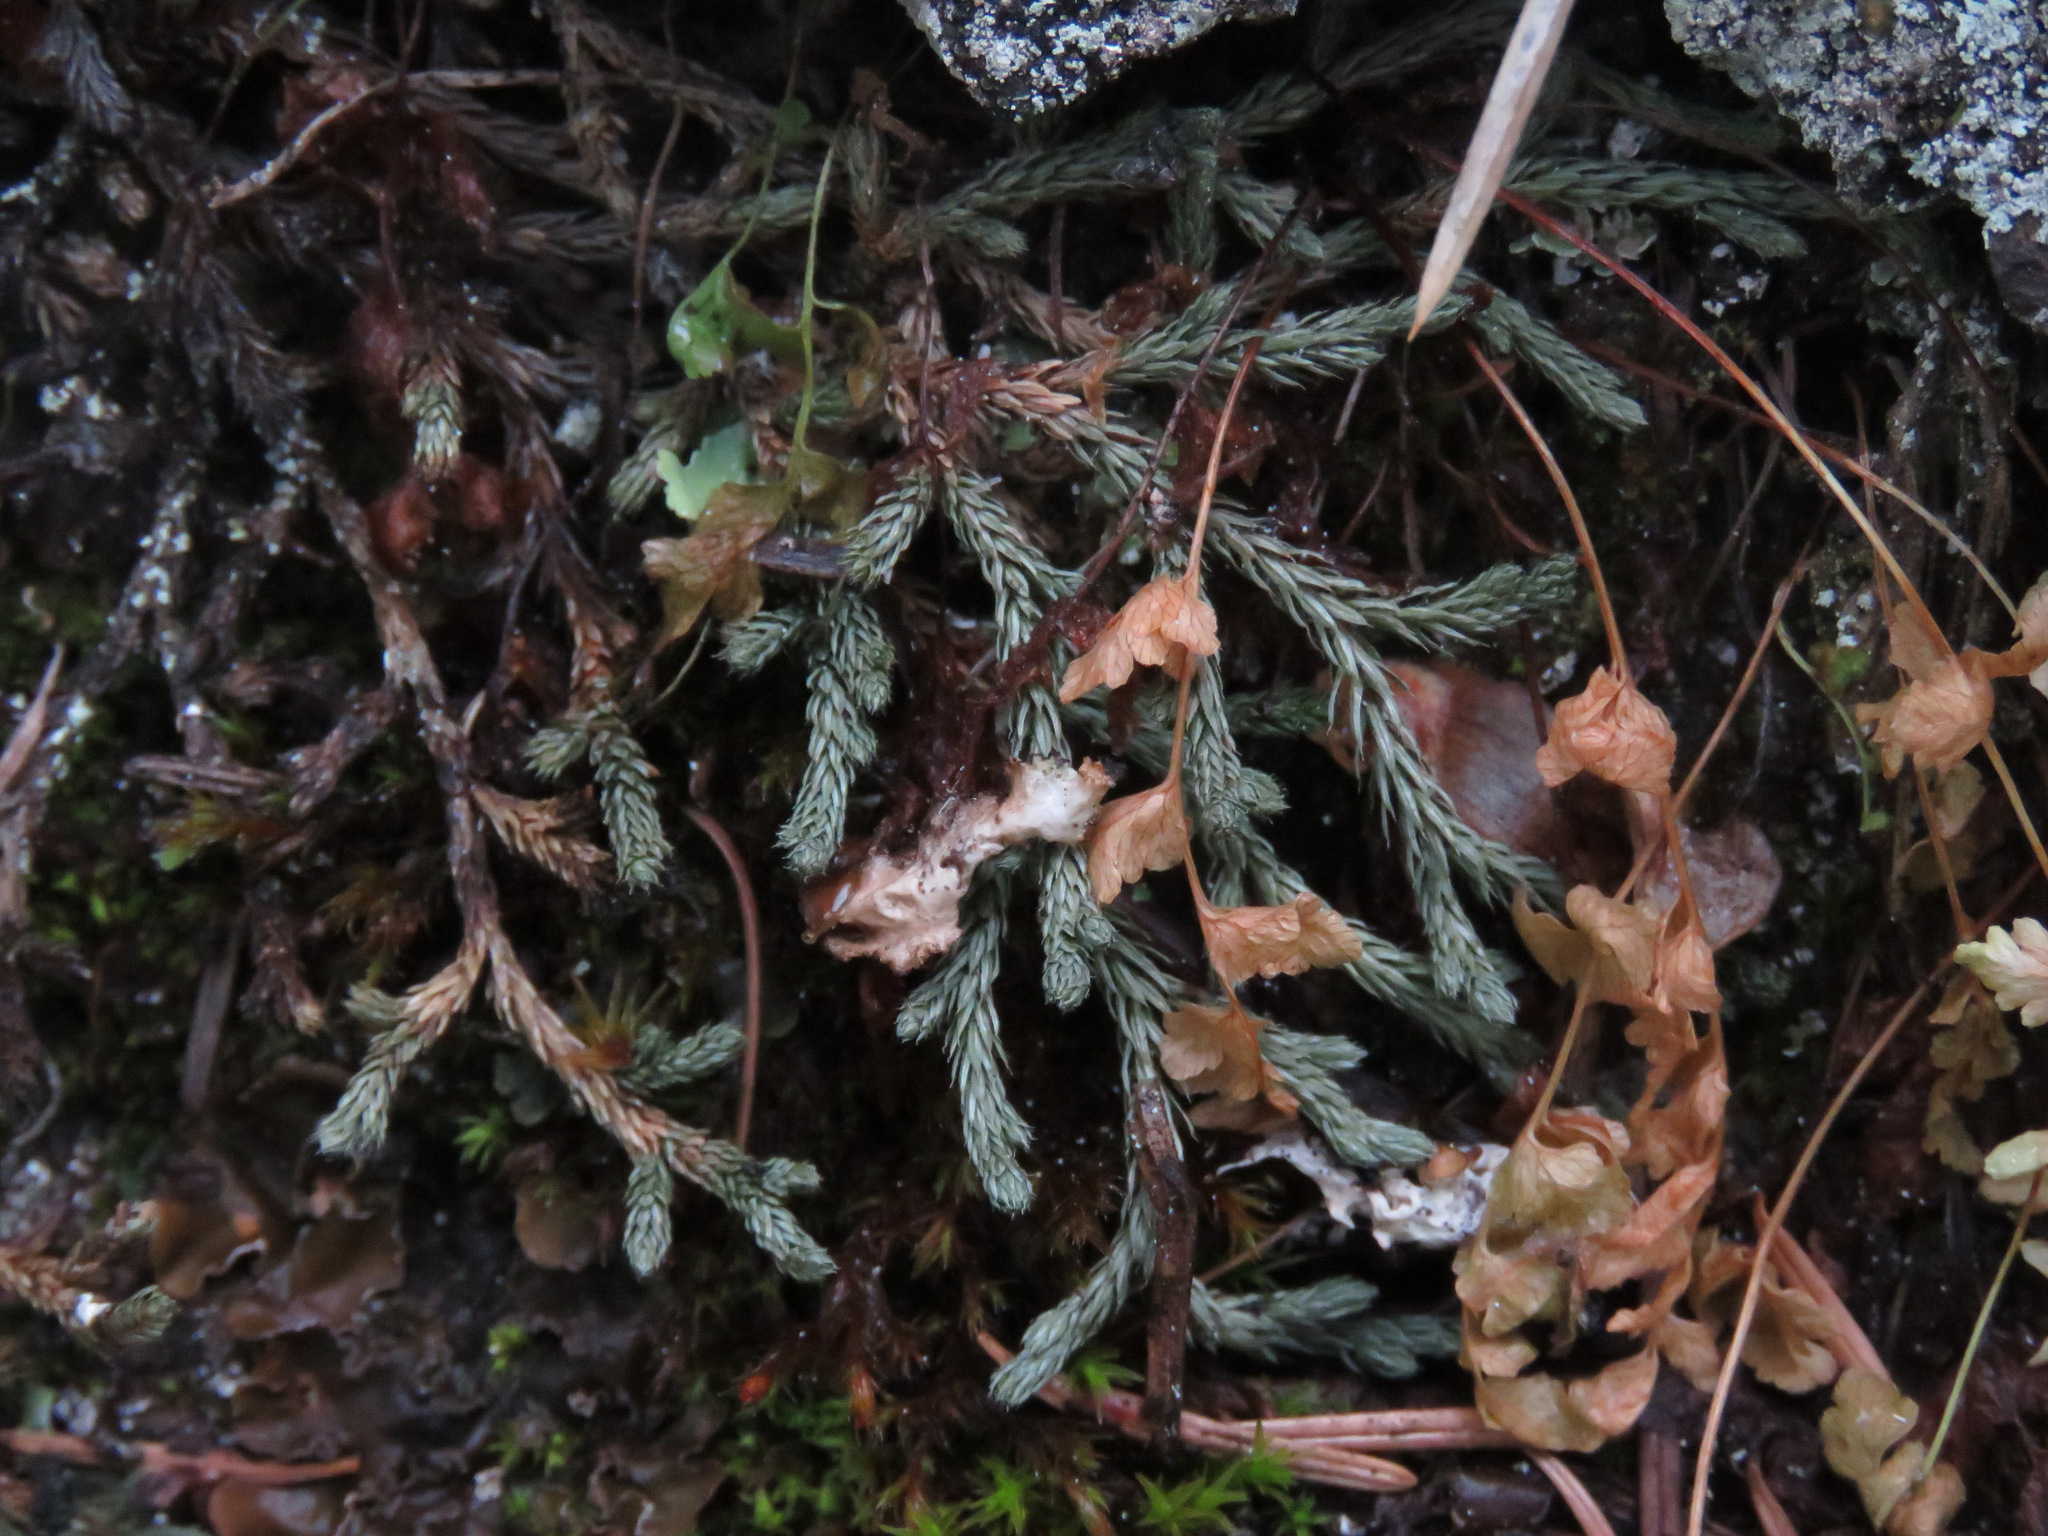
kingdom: Plantae
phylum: Tracheophyta
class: Lycopodiopsida
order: Selaginellales
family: Selaginellaceae
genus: Selaginella
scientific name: Selaginella wallacei
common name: Wallace's selaginella
